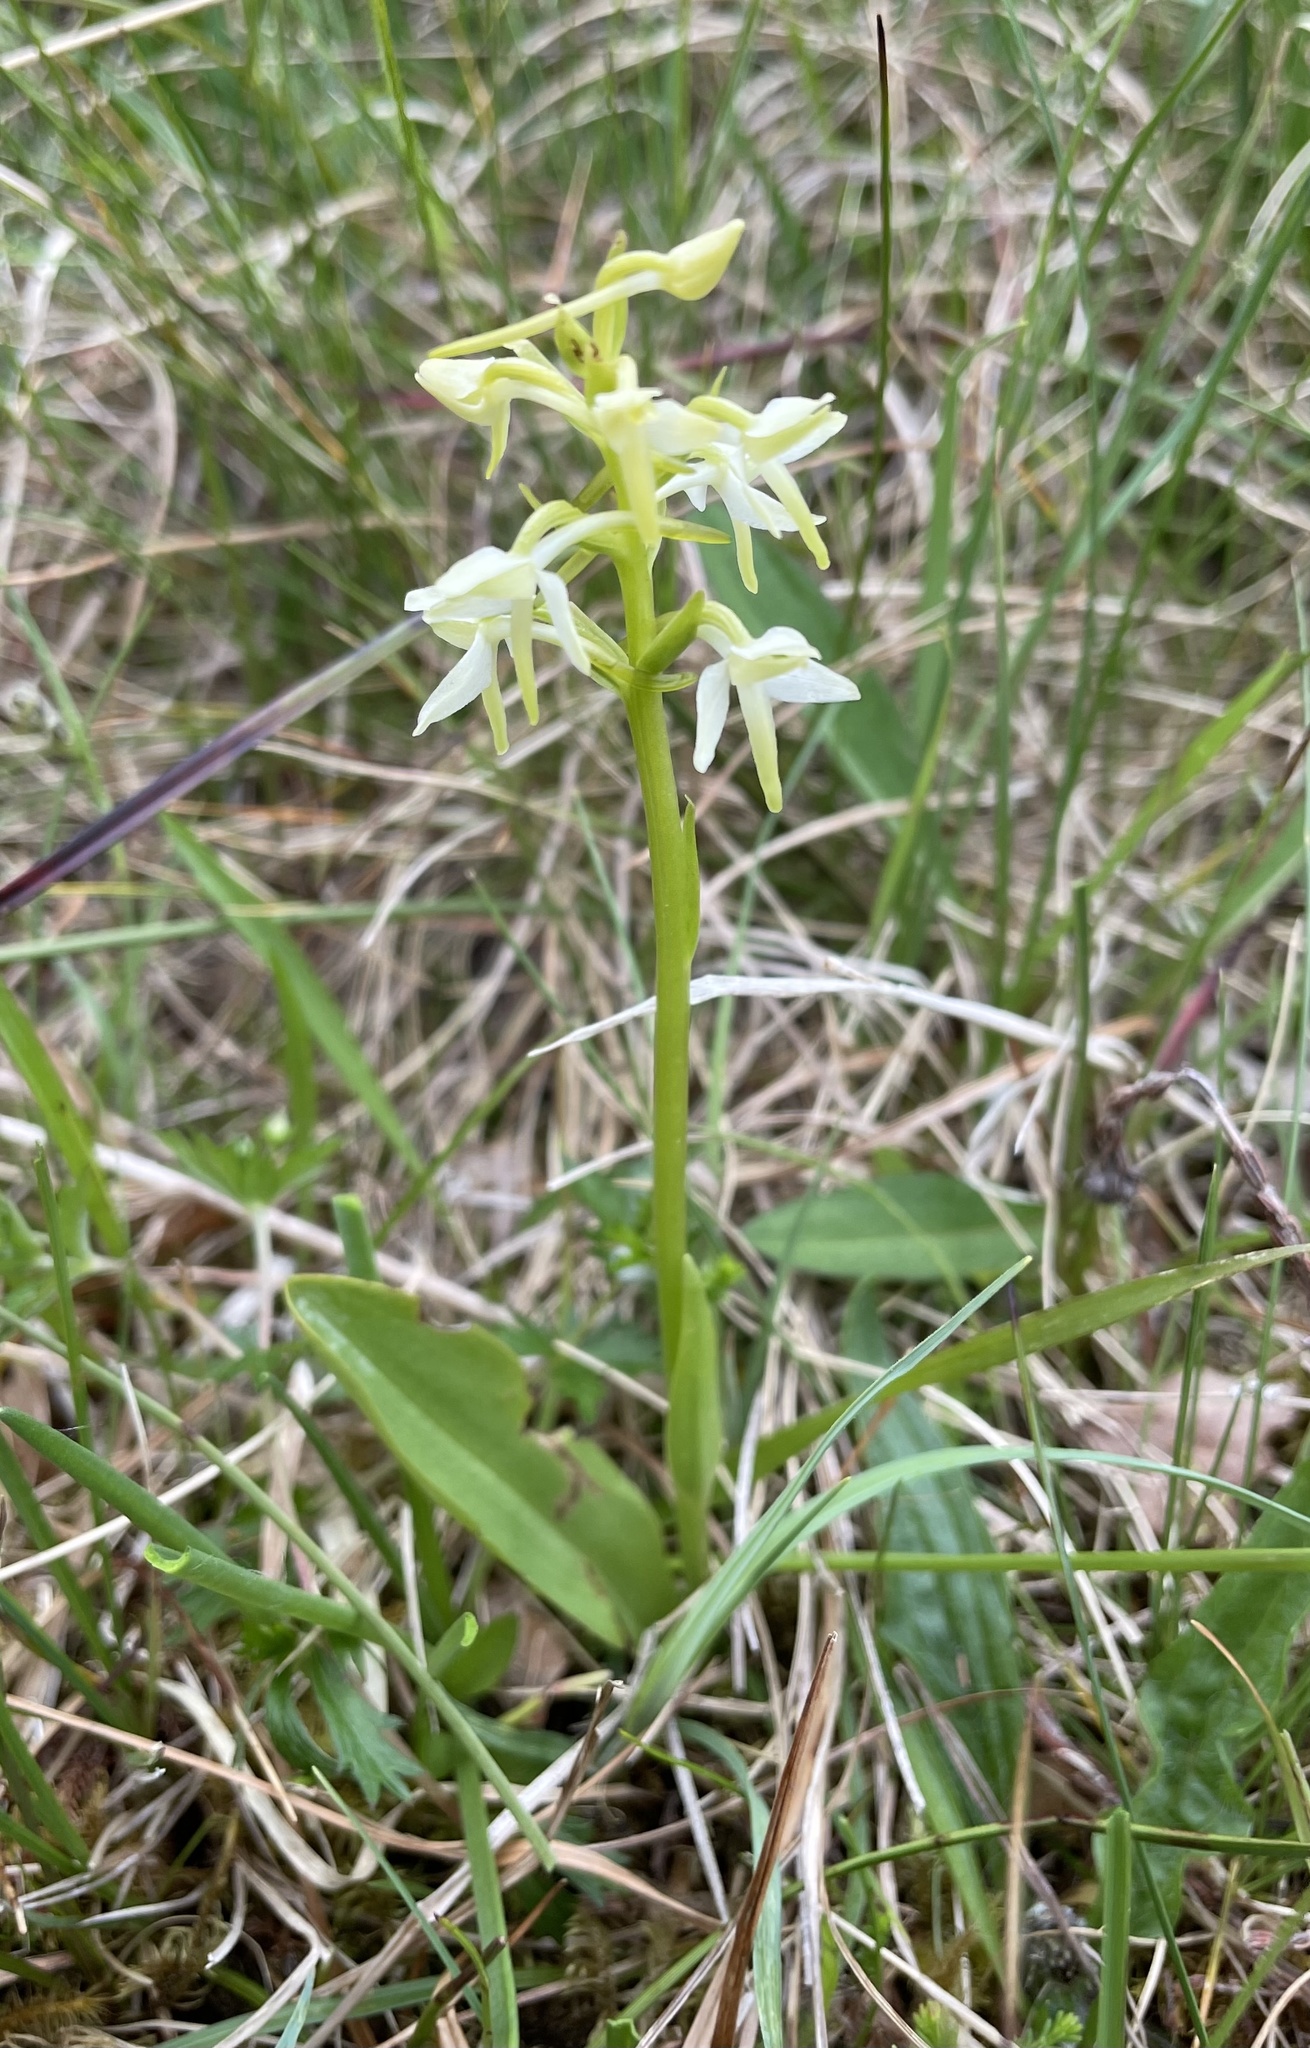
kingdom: Plantae
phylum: Tracheophyta
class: Liliopsida
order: Asparagales
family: Orchidaceae
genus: Platanthera
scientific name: Platanthera bifolia
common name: Lesser butterfly-orchid
